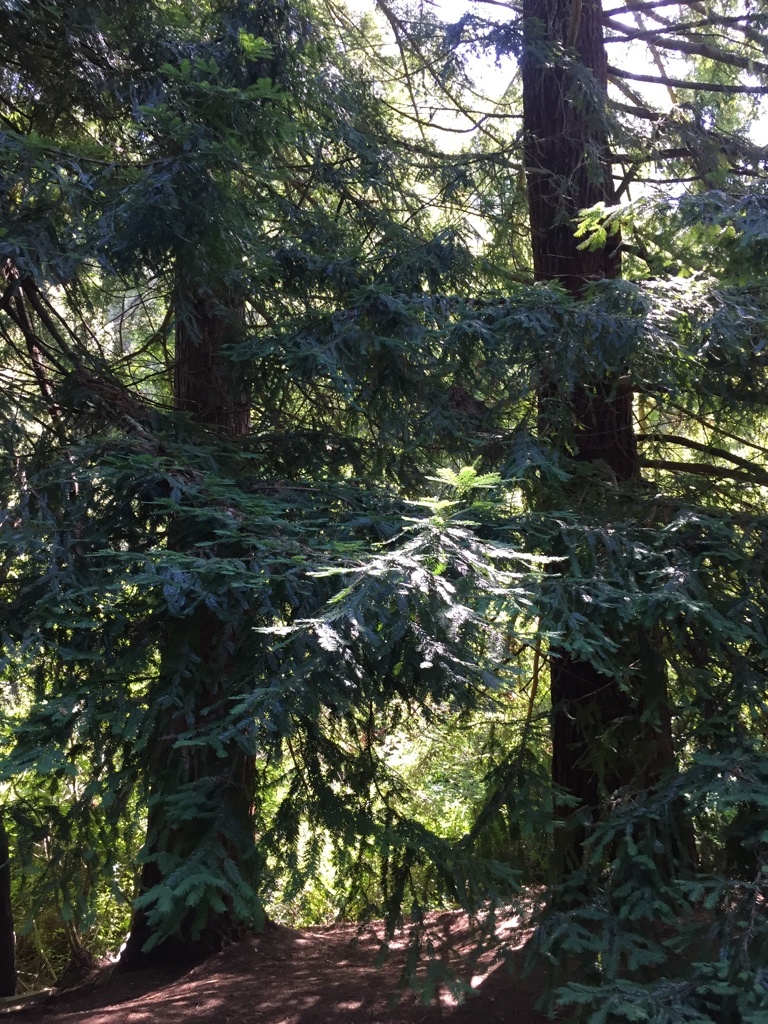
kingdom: Plantae
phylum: Tracheophyta
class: Pinopsida
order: Pinales
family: Cupressaceae
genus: Sequoia
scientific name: Sequoia sempervirens
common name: Coast redwood
